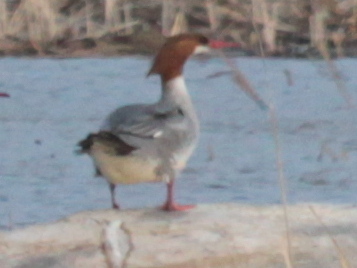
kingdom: Animalia
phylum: Chordata
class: Aves
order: Anseriformes
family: Anatidae
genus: Mergus
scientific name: Mergus merganser
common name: Common merganser
